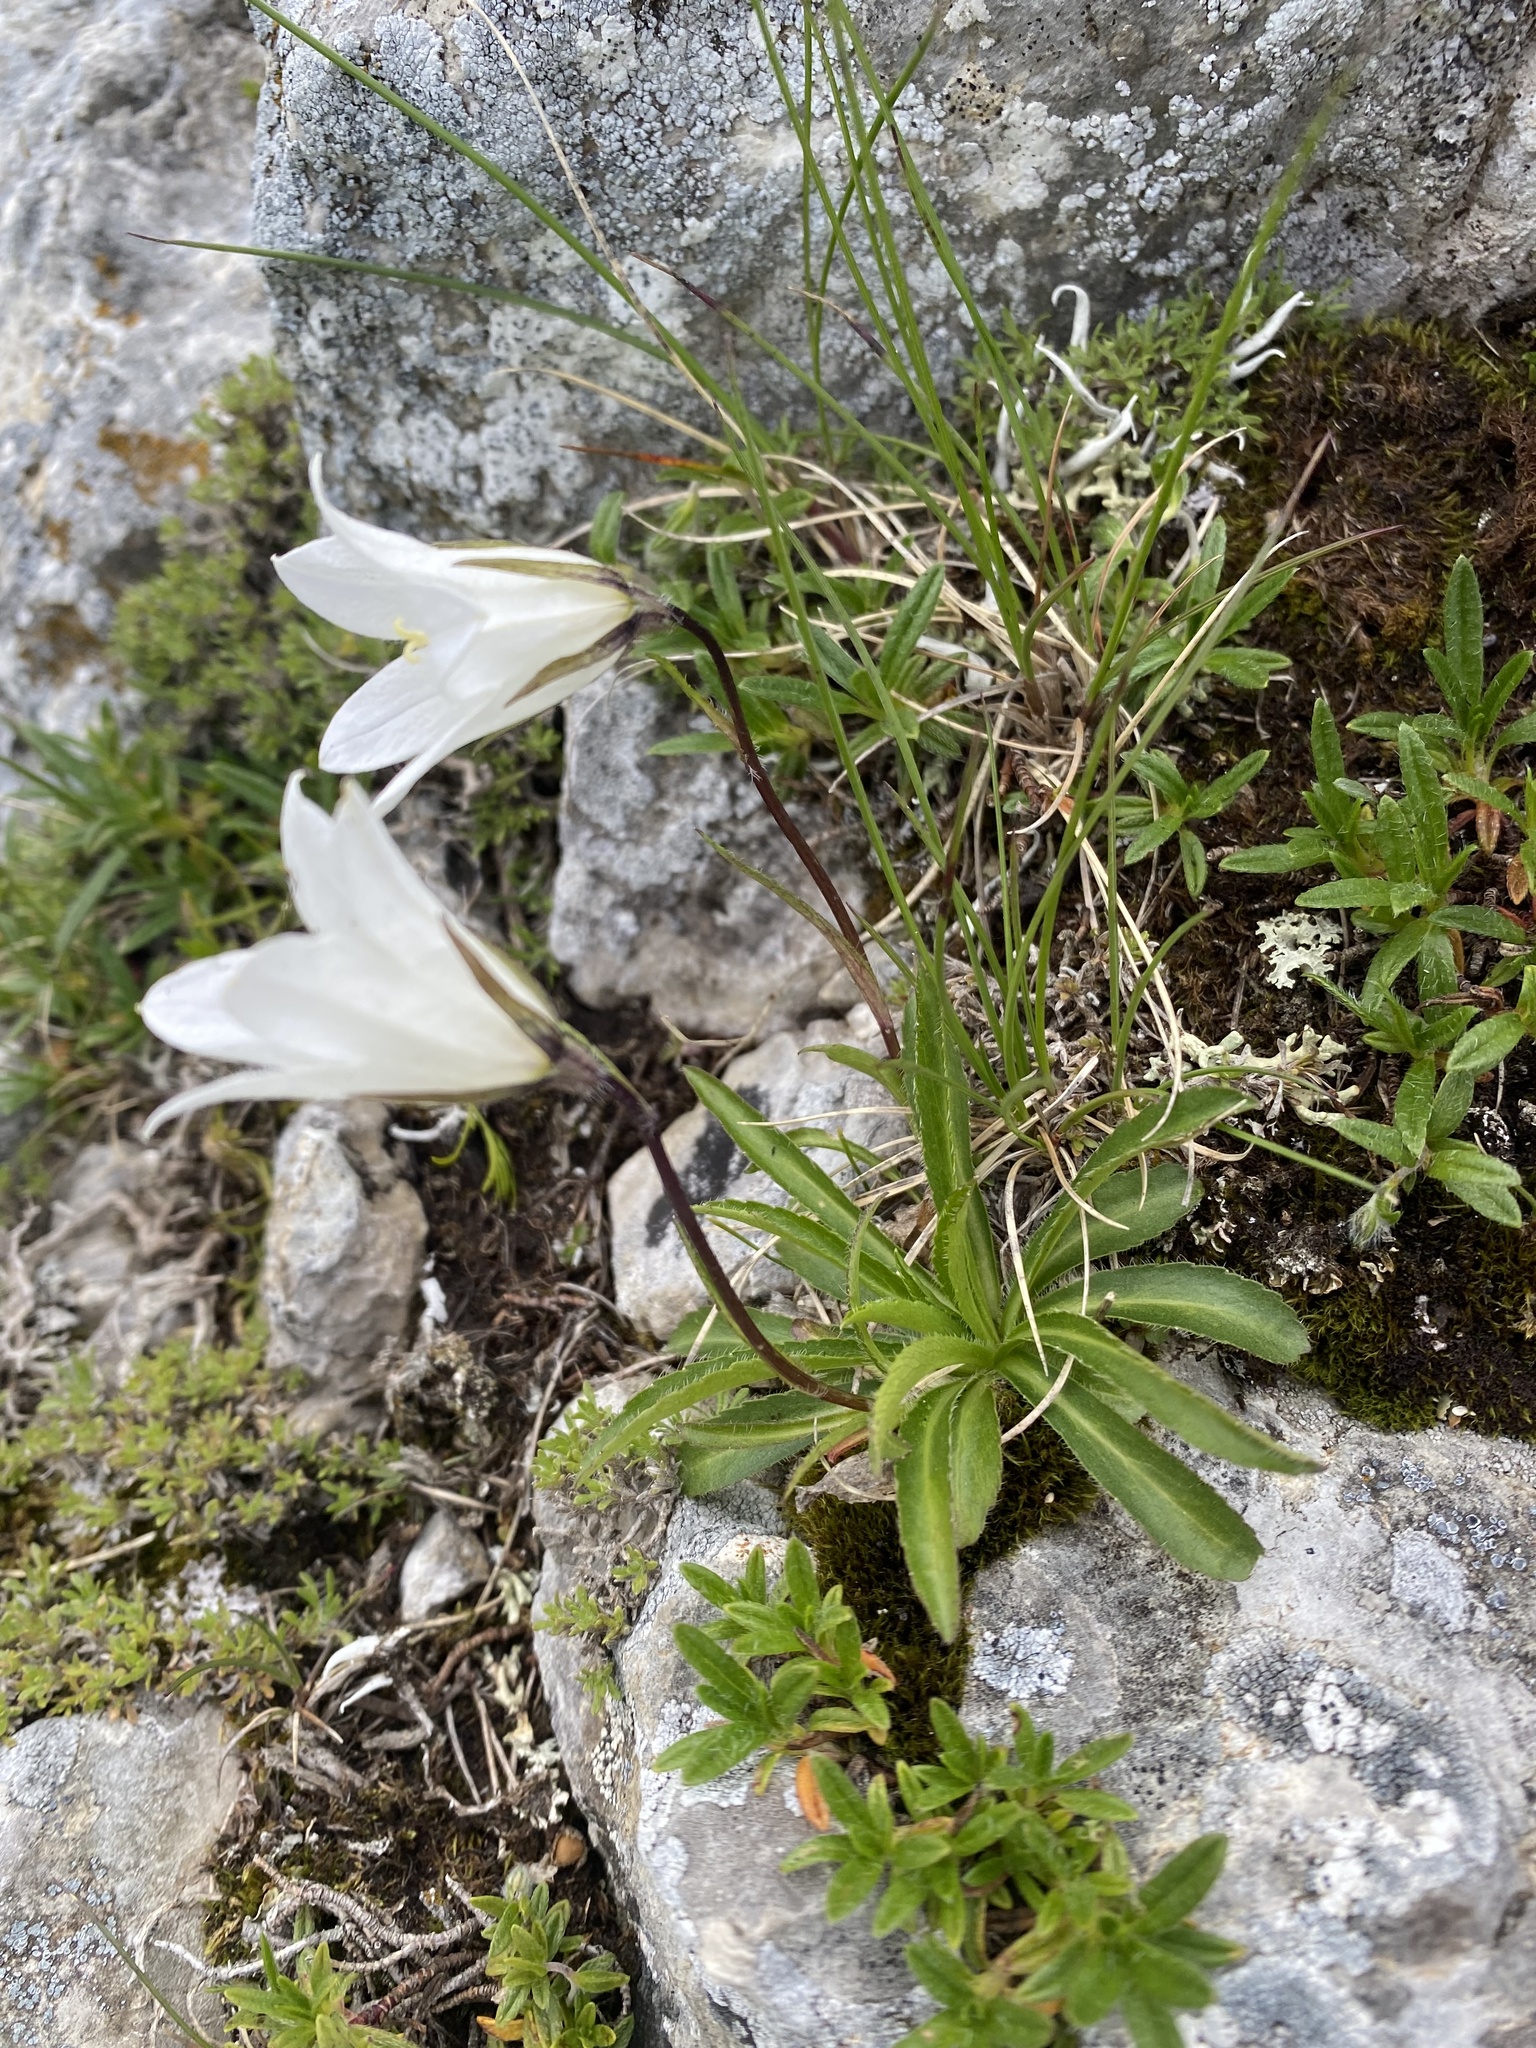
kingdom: Plantae
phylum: Tracheophyta
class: Magnoliopsida
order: Asterales
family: Campanulaceae
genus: Campanula
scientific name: Campanula ciliata
